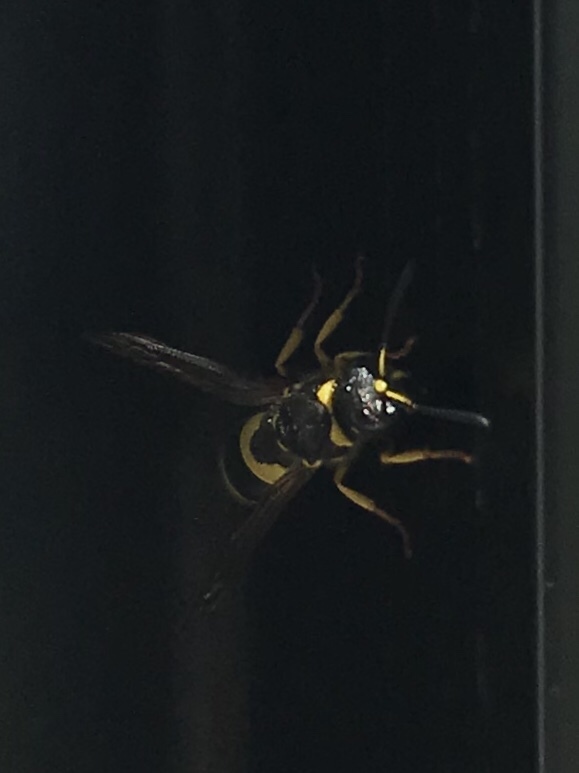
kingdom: Animalia
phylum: Arthropoda
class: Insecta
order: Hymenoptera
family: Vespidae
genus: Ancistrocerus
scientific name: Ancistrocerus gazella
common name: European tube wasp
